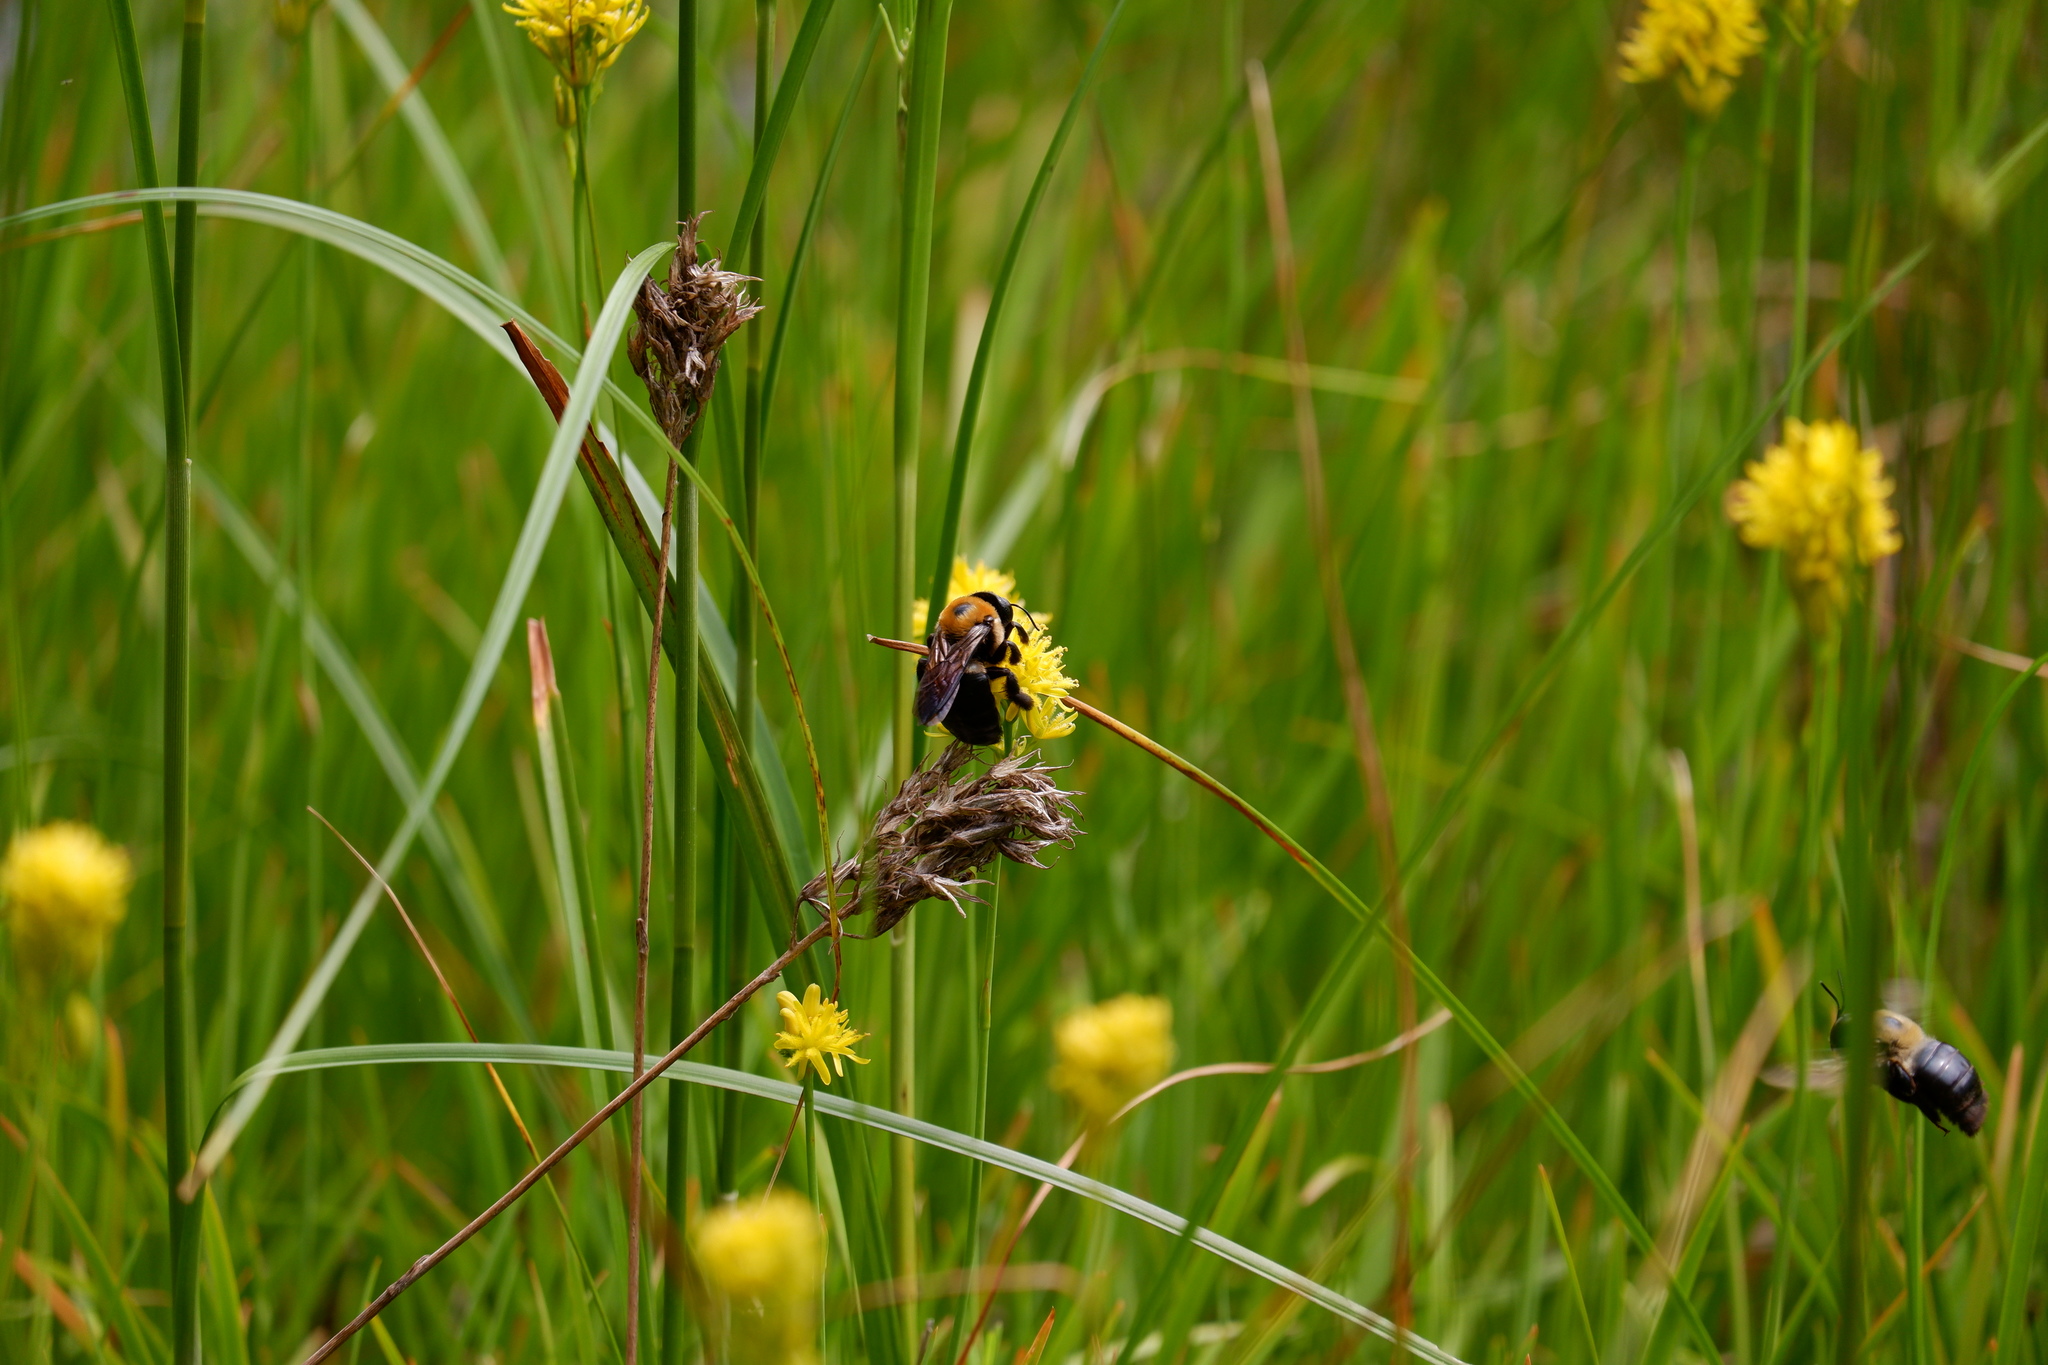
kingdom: Animalia
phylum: Arthropoda
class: Insecta
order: Hymenoptera
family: Apidae
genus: Xylocopa
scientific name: Xylocopa virginica
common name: Carpenter bee
